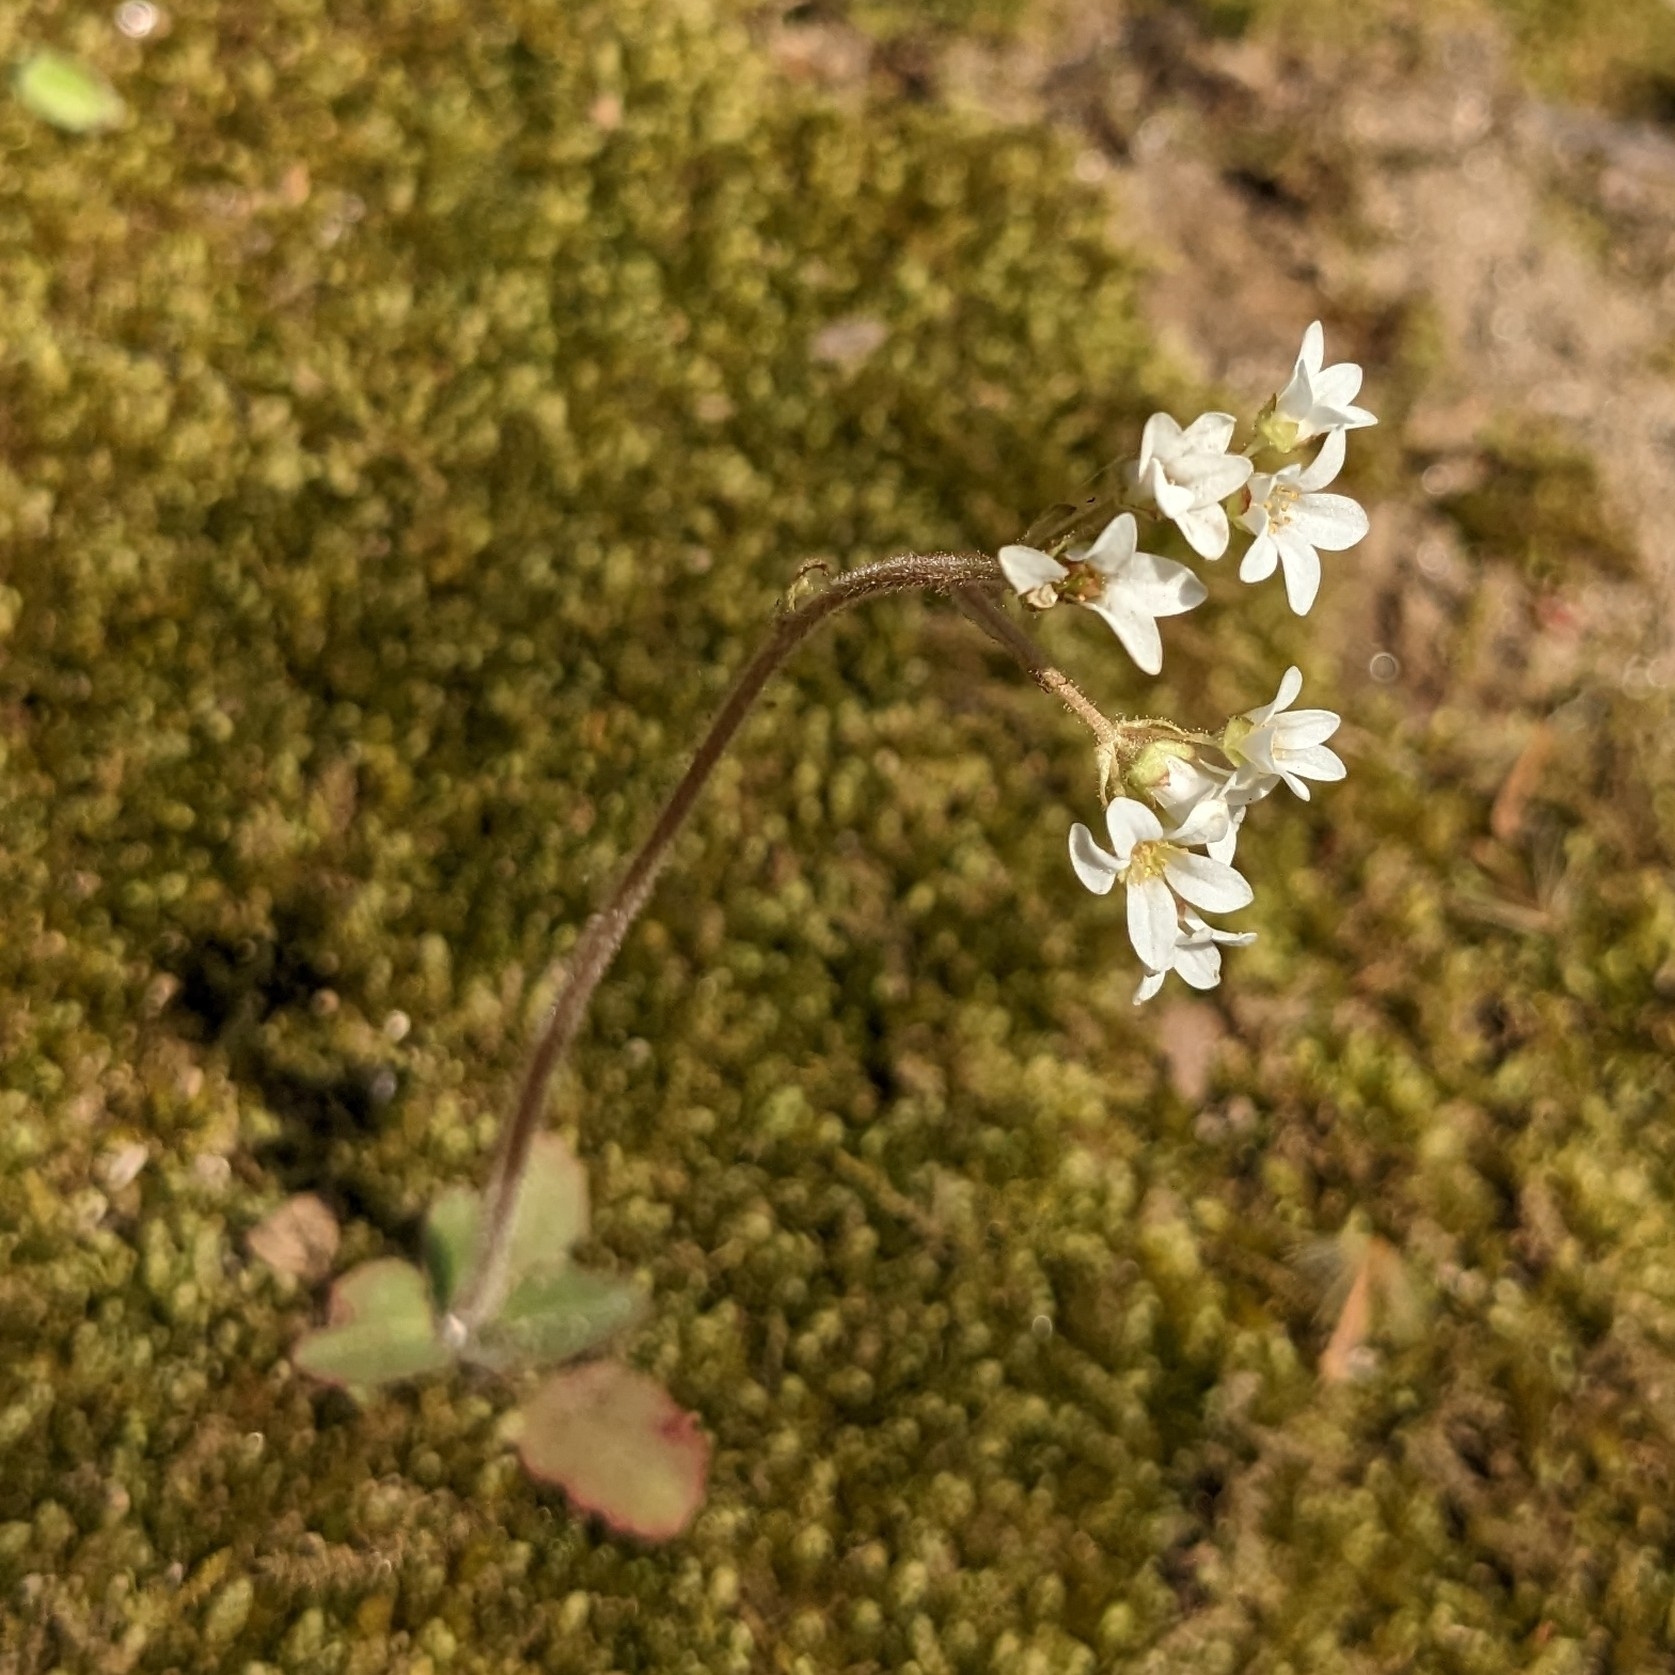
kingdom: Plantae
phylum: Tracheophyta
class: Magnoliopsida
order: Saxifragales
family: Saxifragaceae
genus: Micranthes
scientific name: Micranthes virginiensis
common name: Early saxifrage
